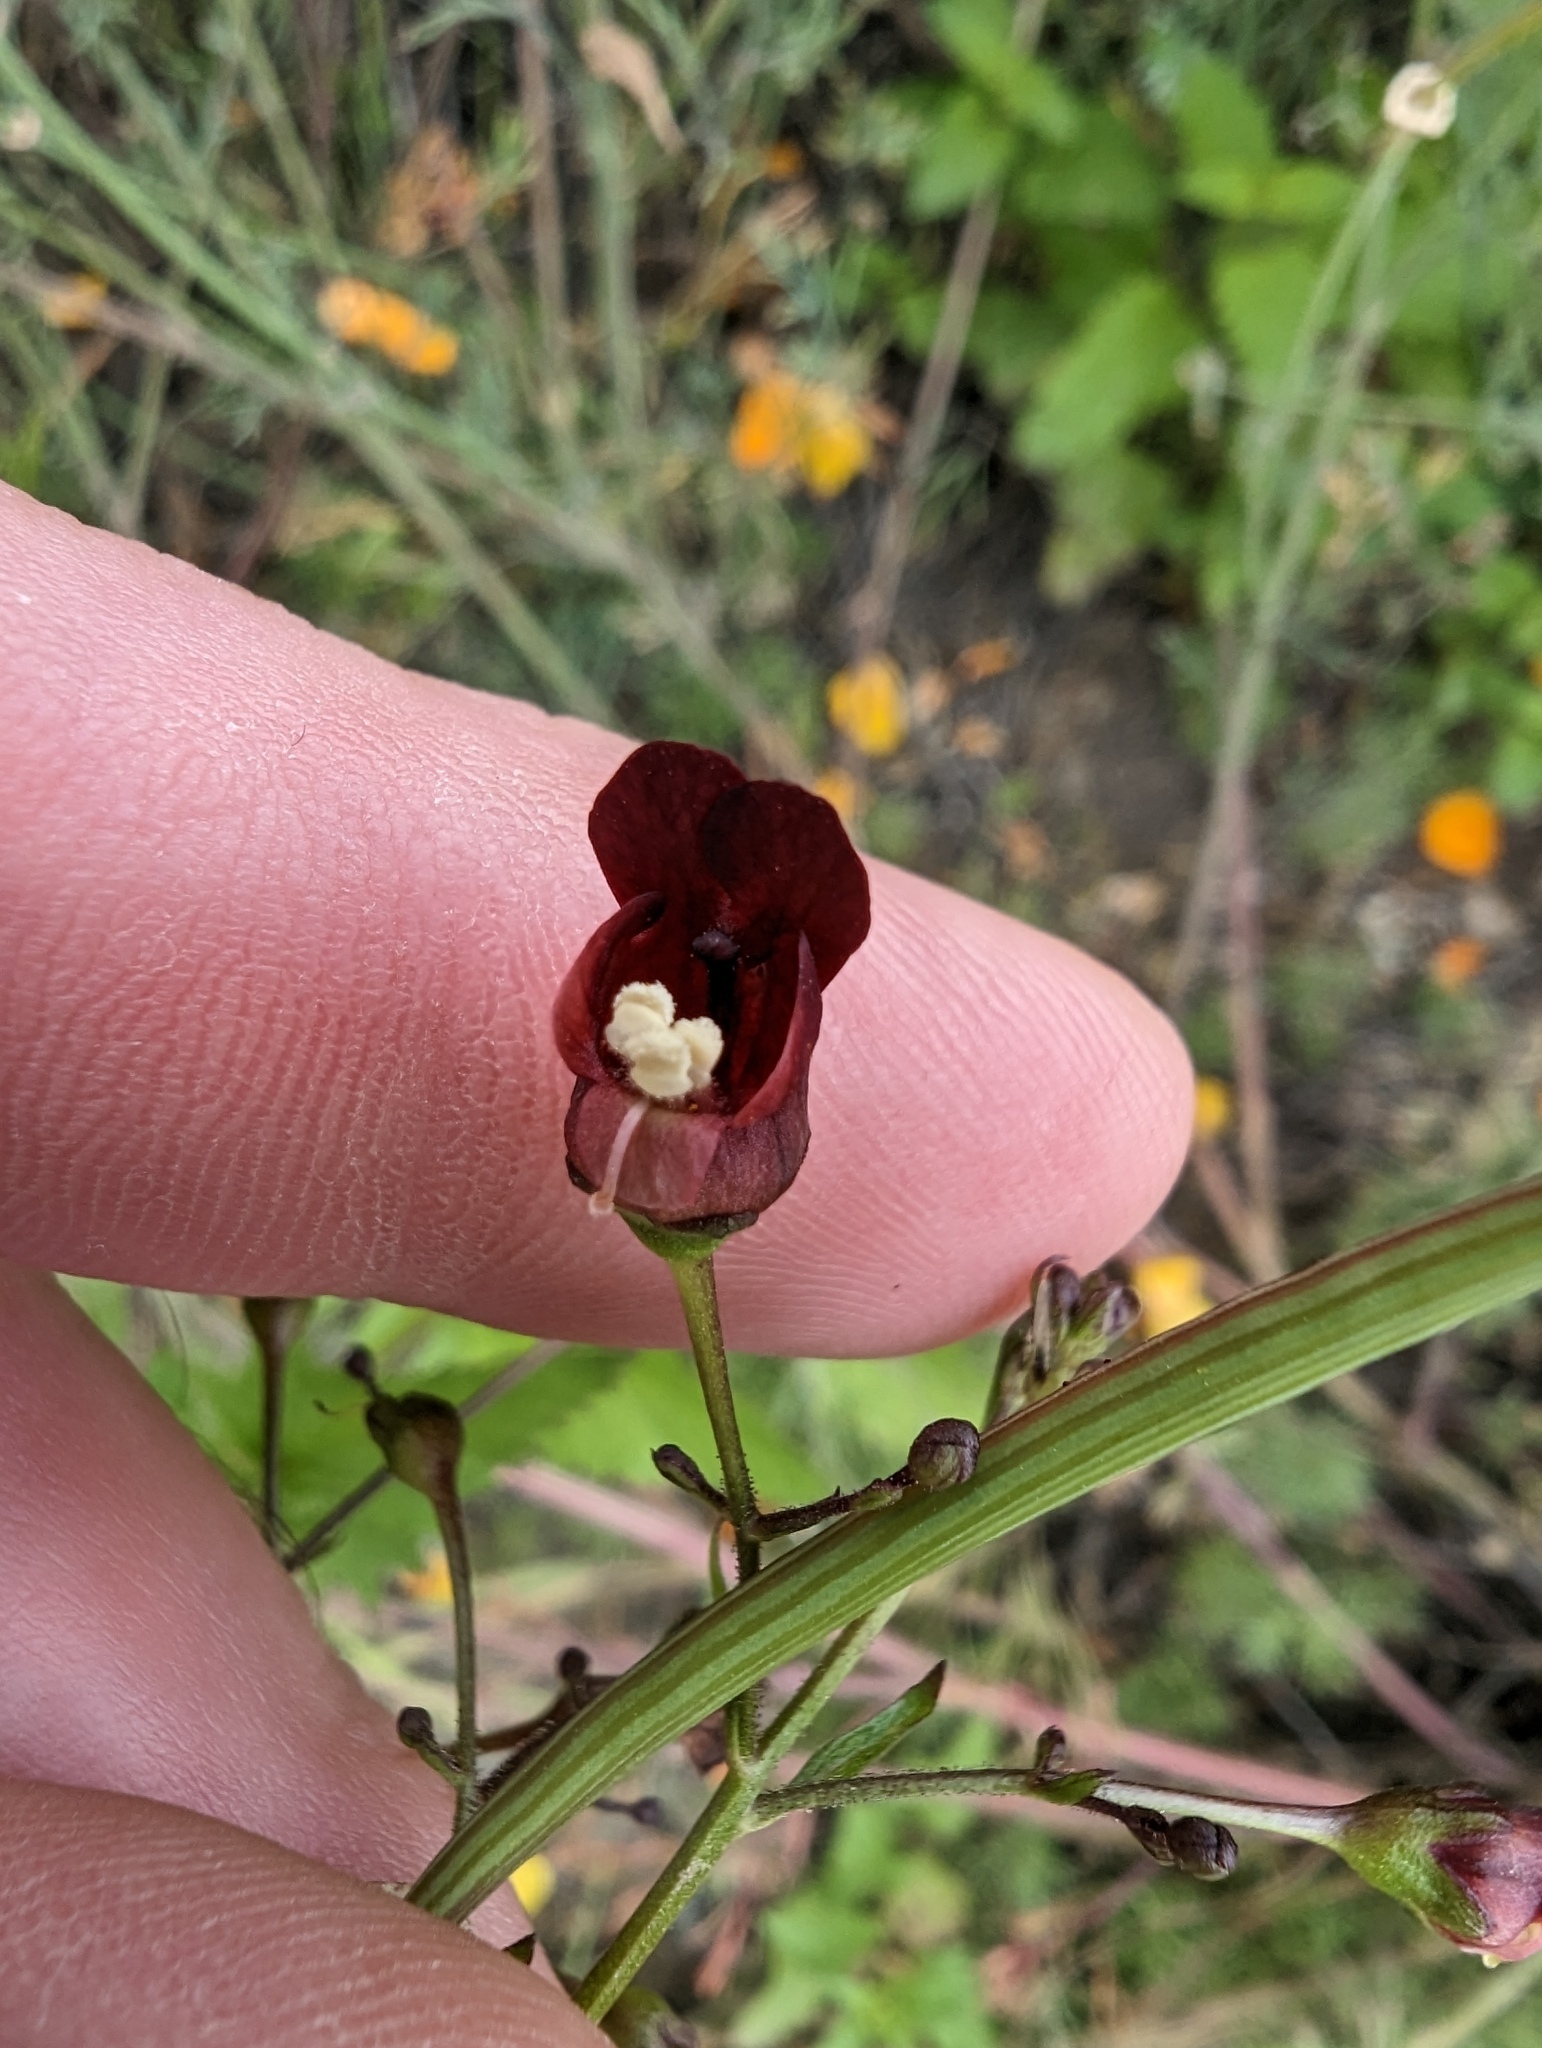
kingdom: Plantae
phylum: Tracheophyta
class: Magnoliopsida
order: Lamiales
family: Scrophulariaceae
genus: Scrophularia
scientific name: Scrophularia californica
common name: California figwort
